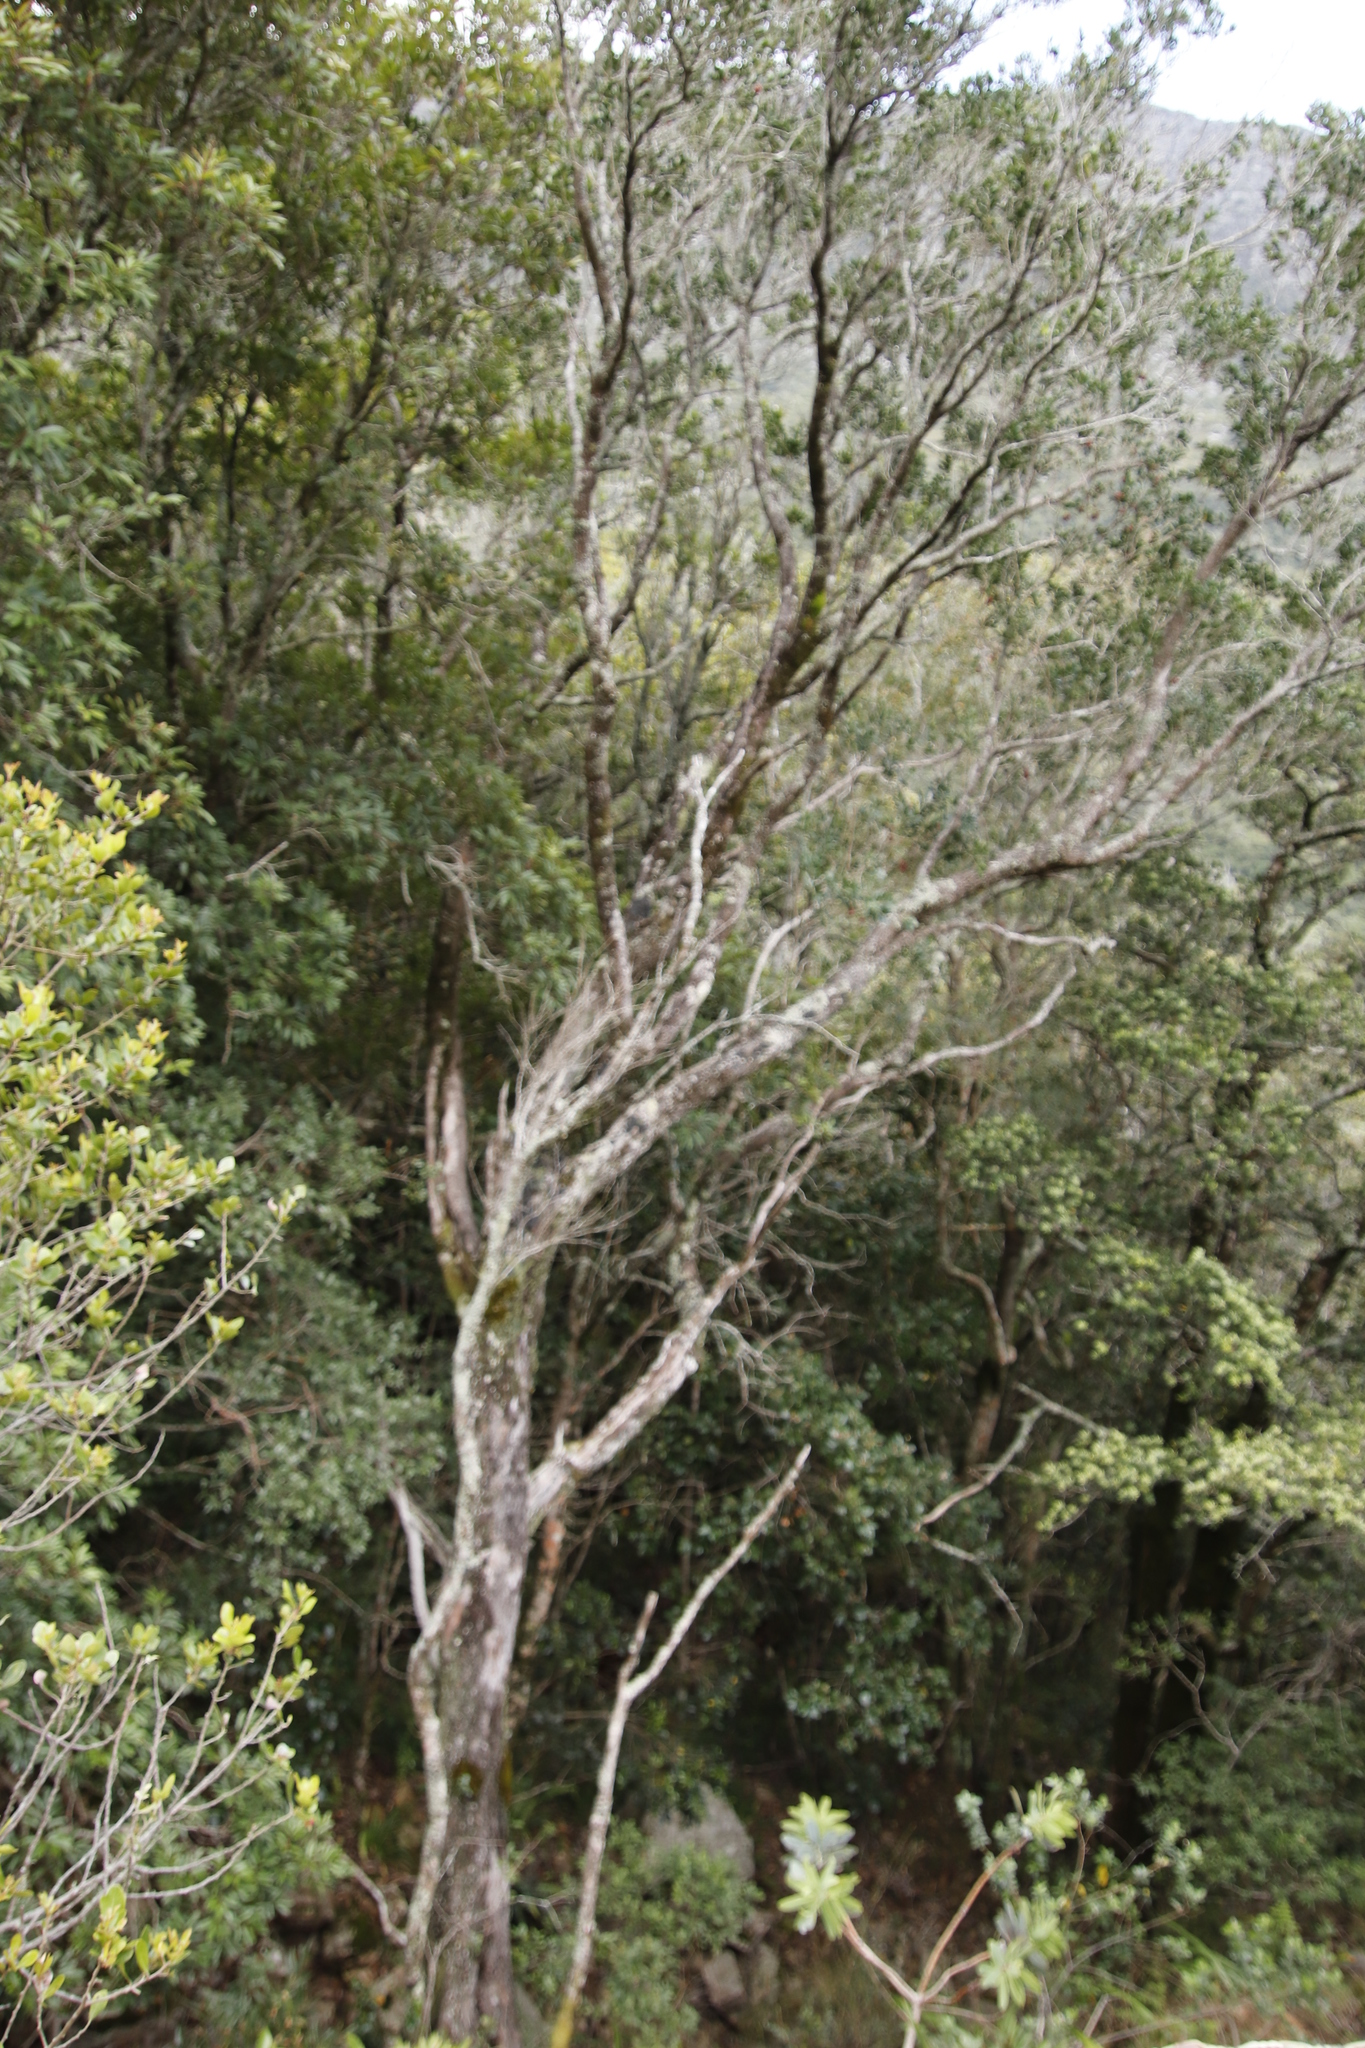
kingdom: Plantae
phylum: Tracheophyta
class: Magnoliopsida
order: Myrtales
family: Penaeaceae
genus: Olinia
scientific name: Olinia ventosa
